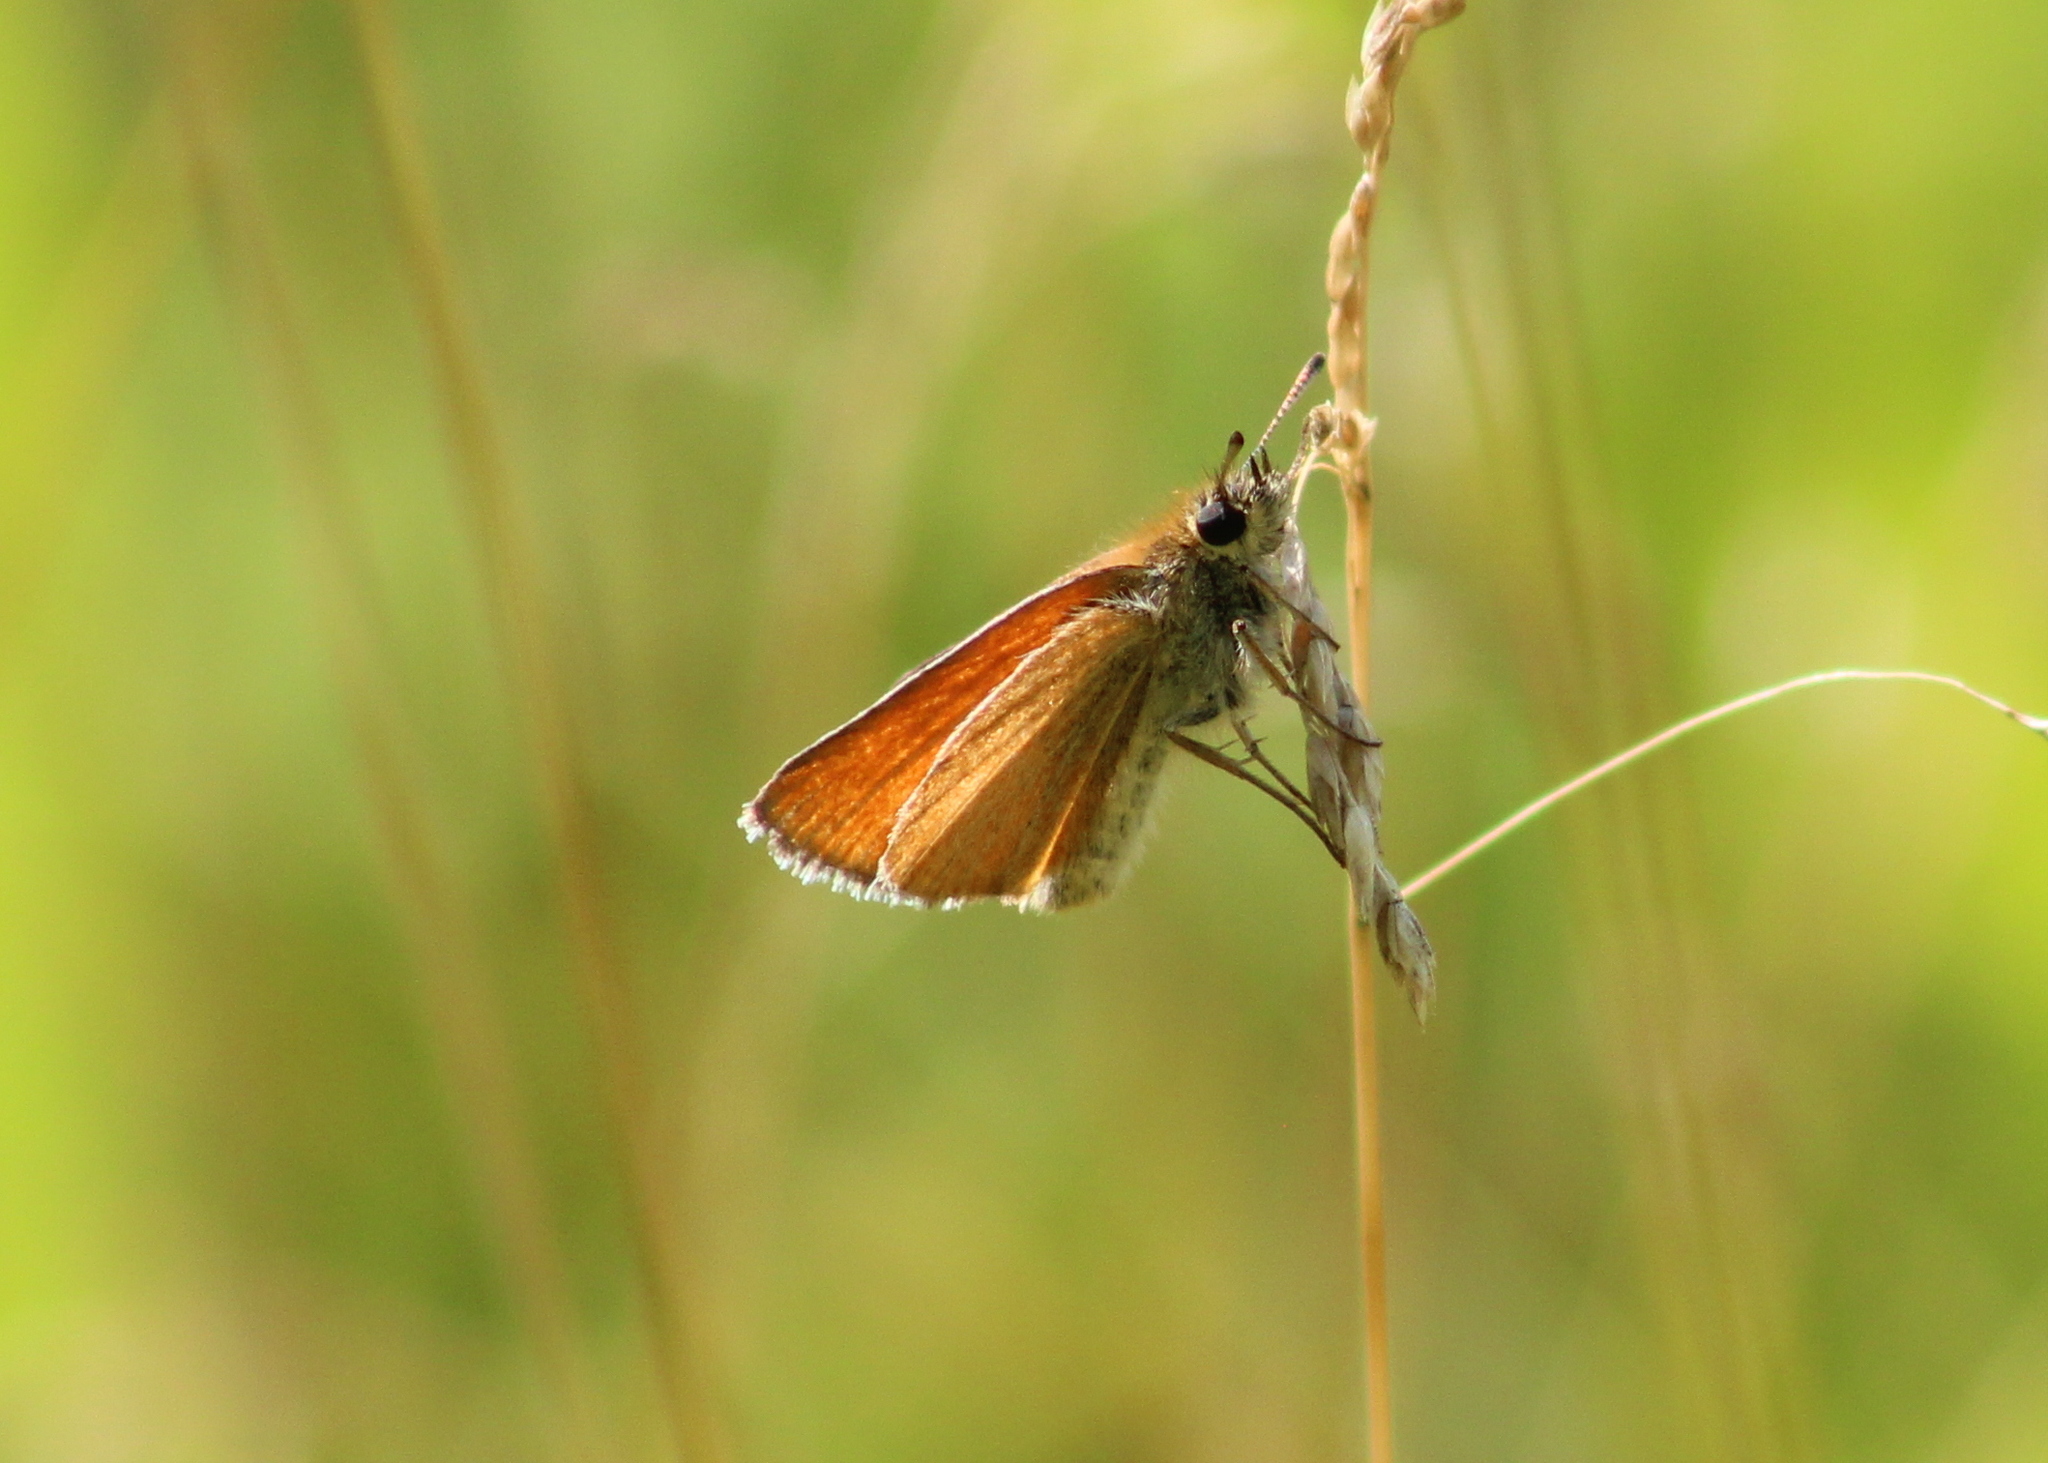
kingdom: Animalia
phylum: Arthropoda
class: Insecta
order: Lepidoptera
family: Hesperiidae
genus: Thymelicus
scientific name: Thymelicus lineola
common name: Essex skipper
